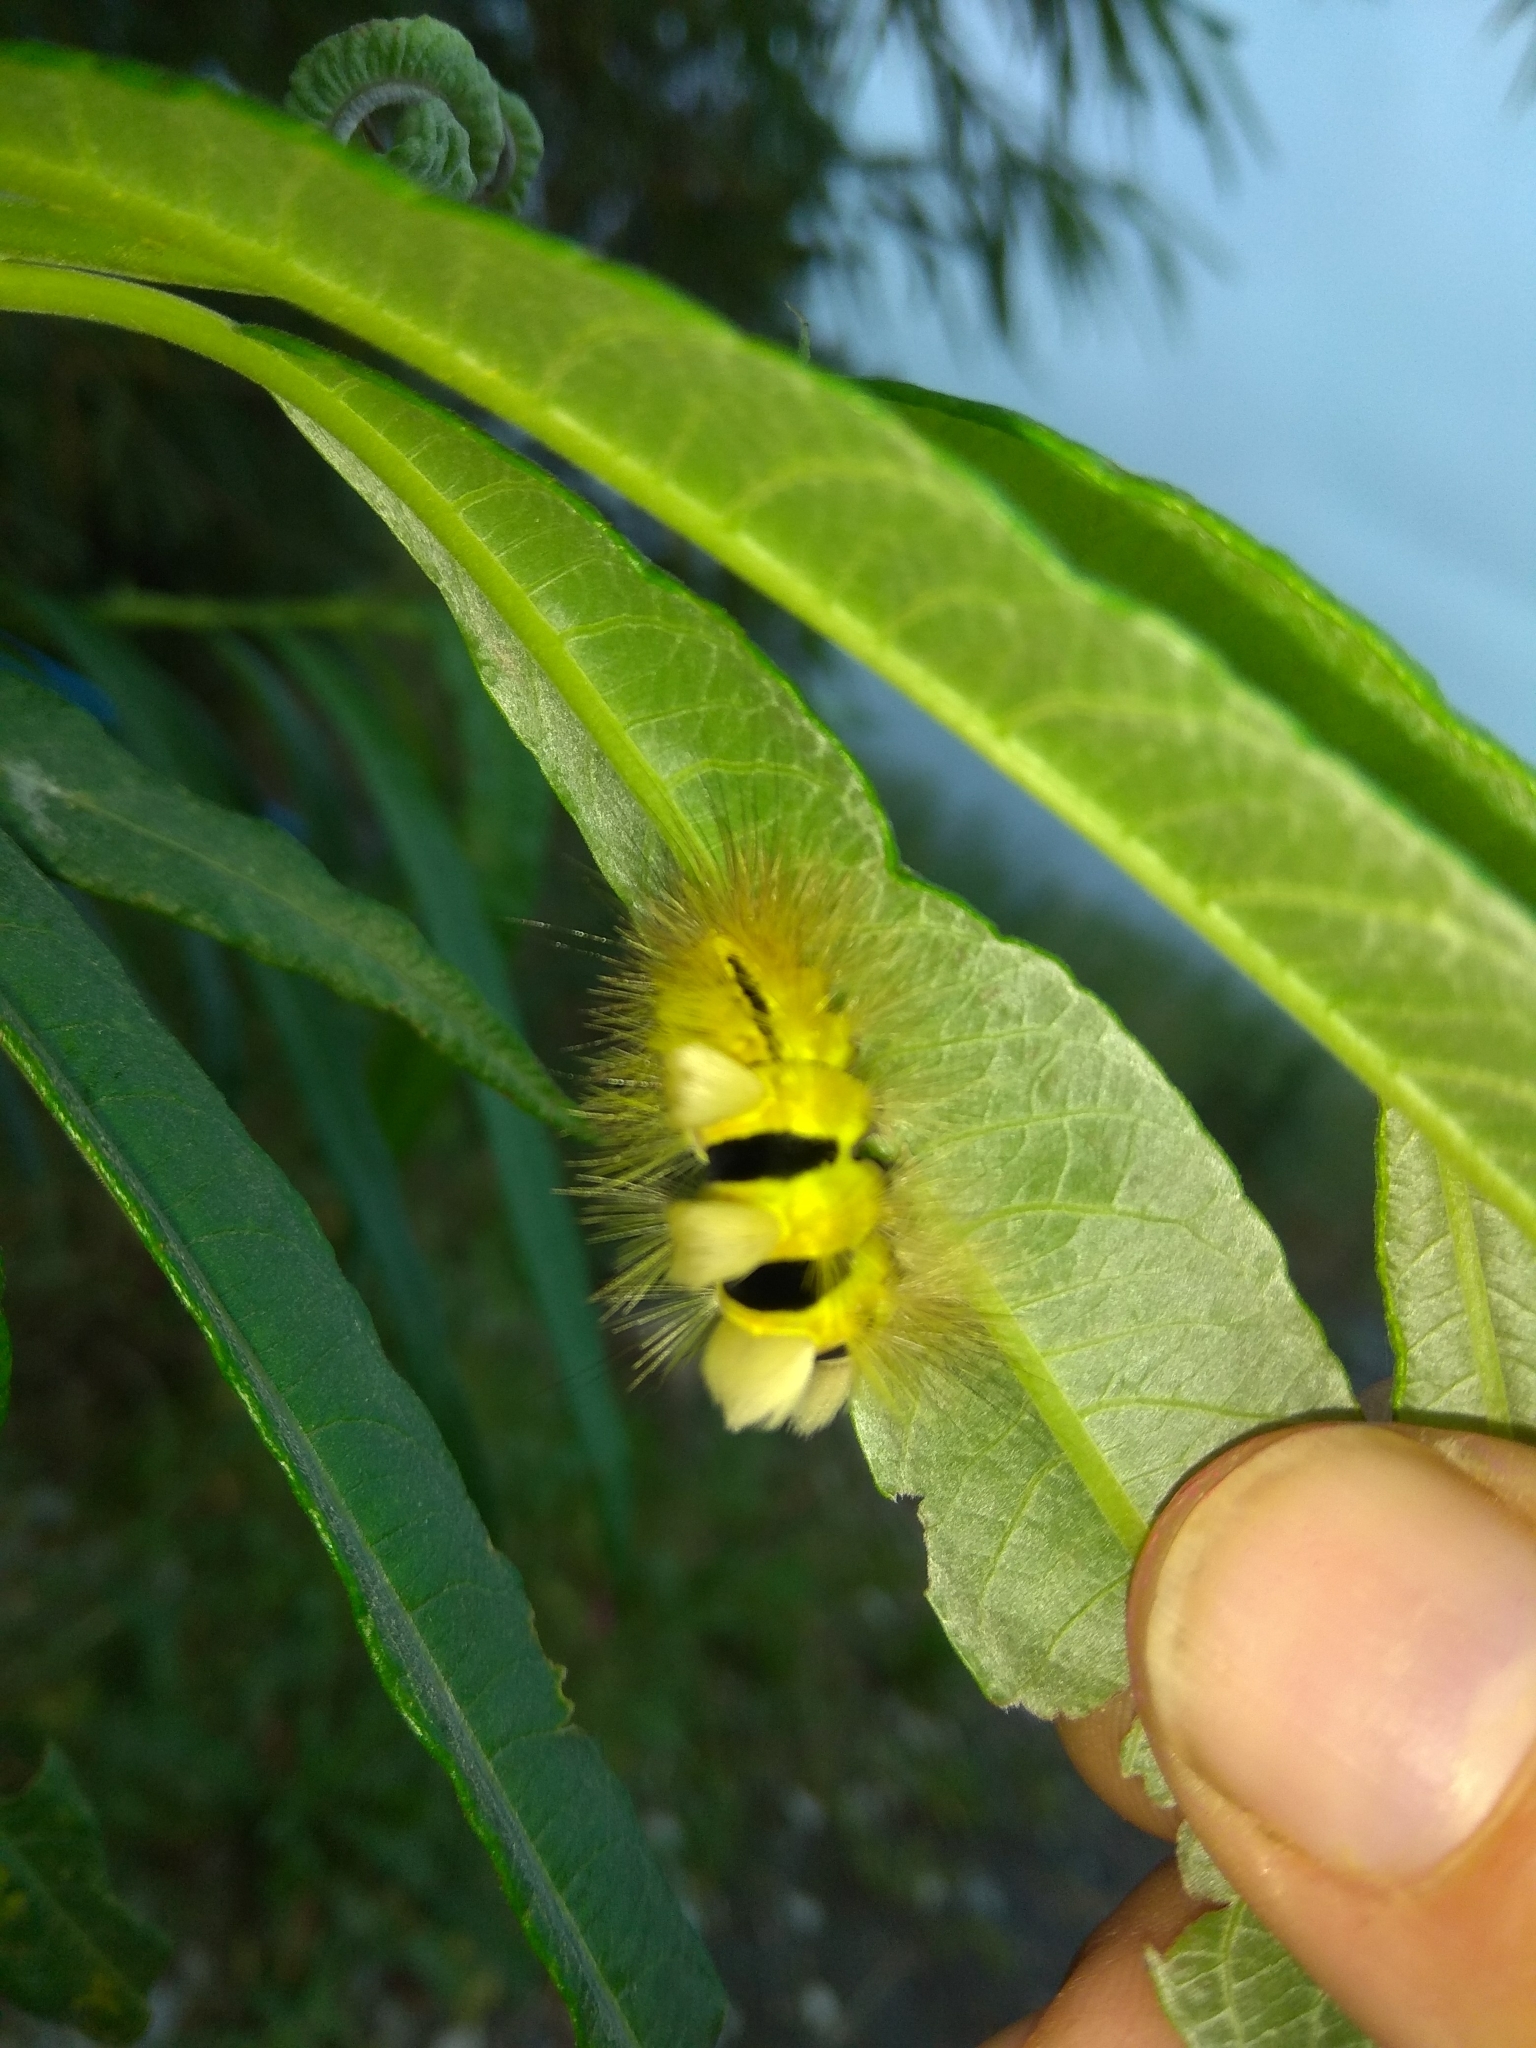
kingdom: Animalia
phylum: Arthropoda
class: Insecta
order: Lepidoptera
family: Erebidae
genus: Calliteara
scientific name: Calliteara pudibunda
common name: Pale tussock
